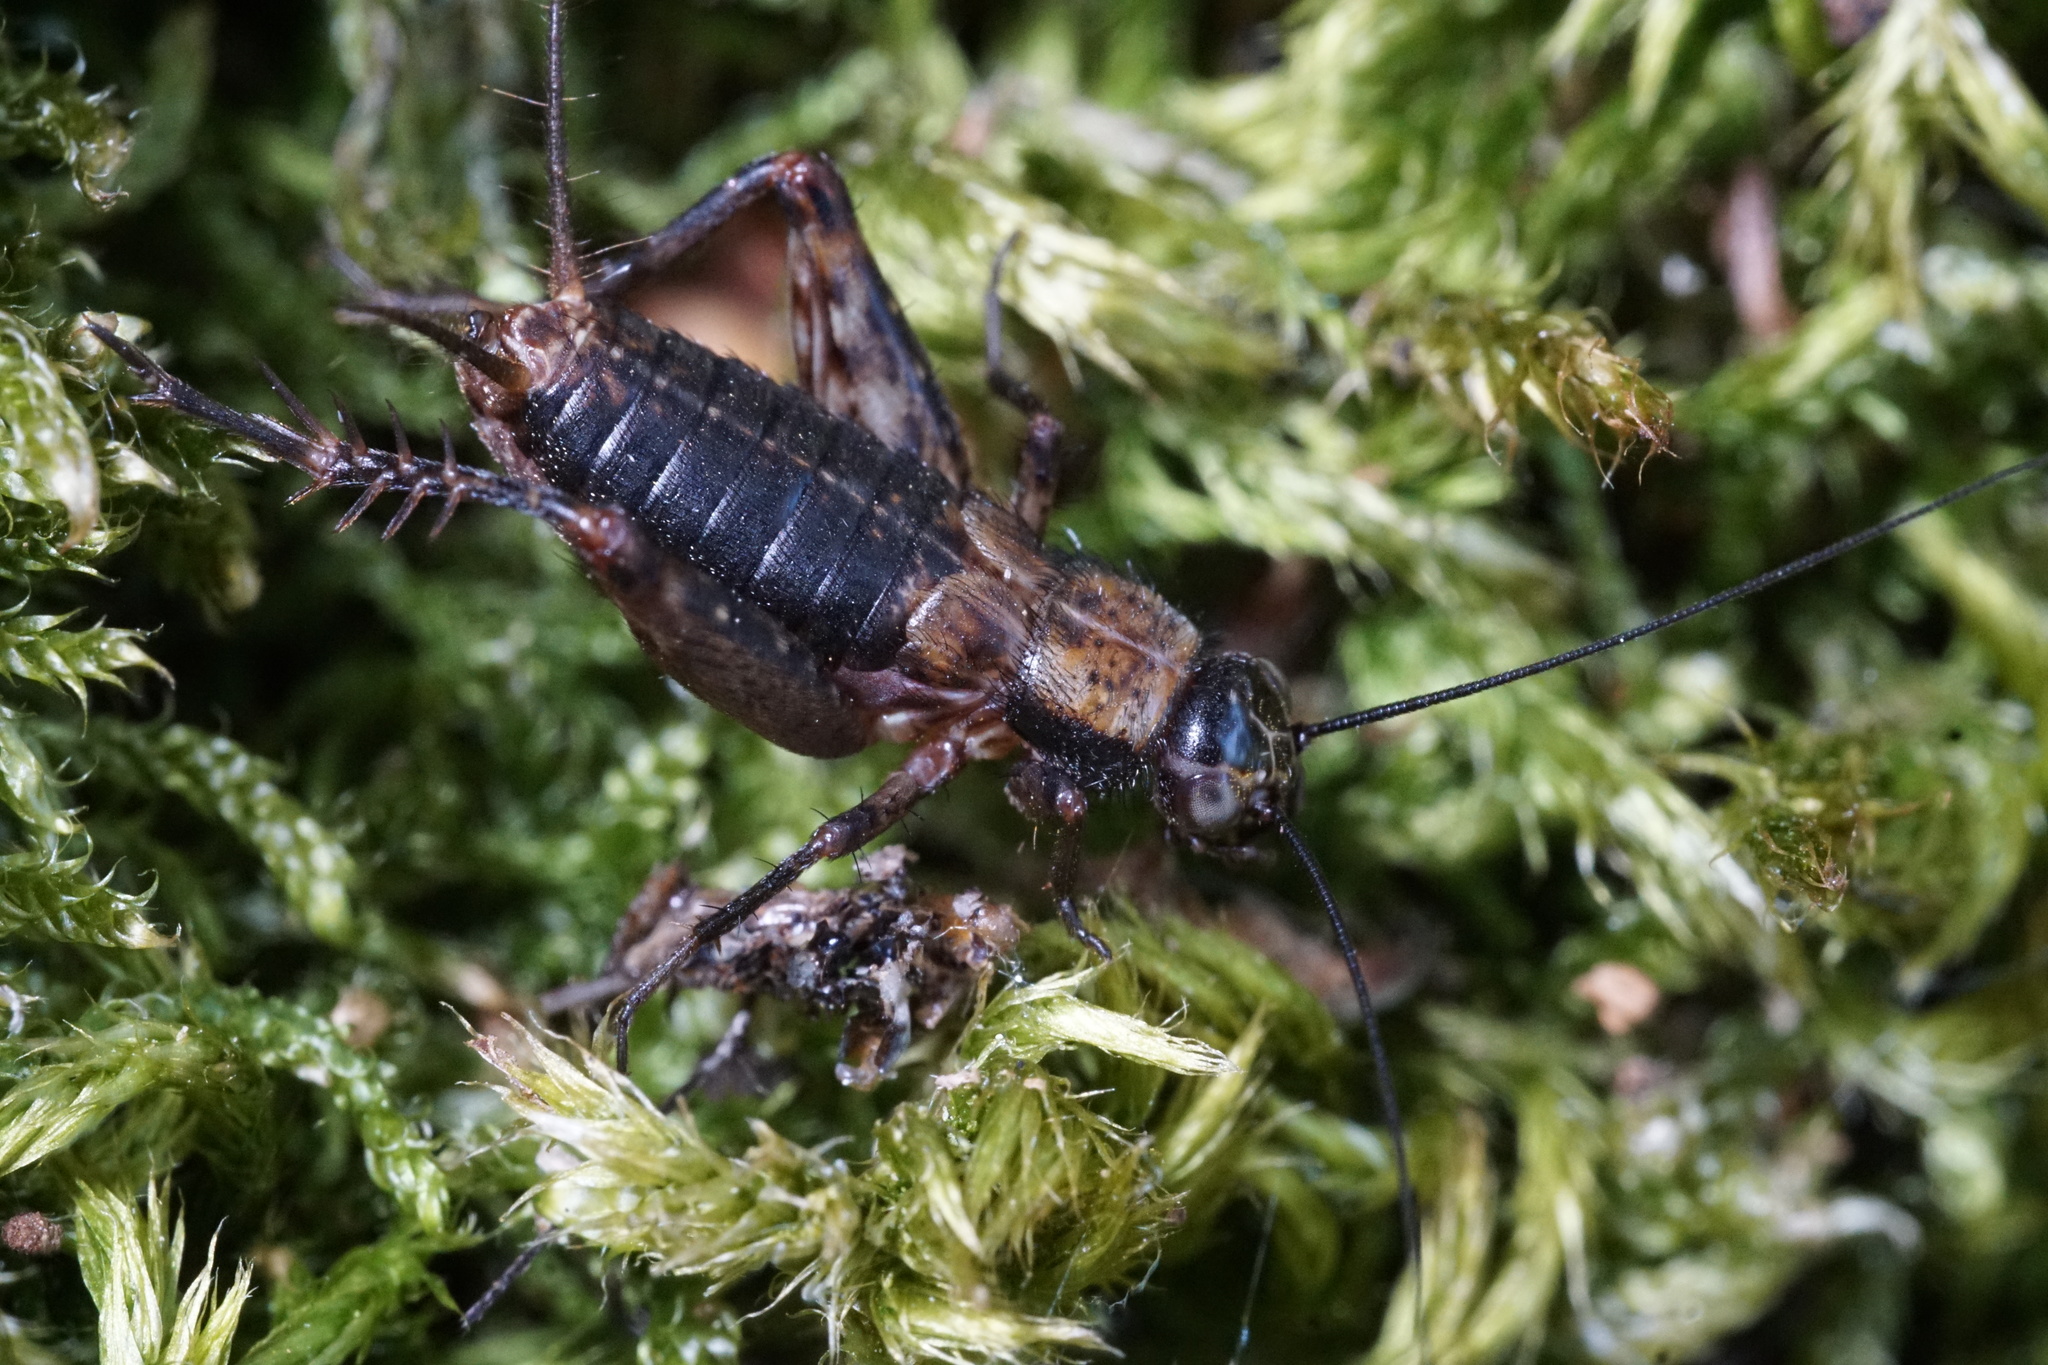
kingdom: Animalia
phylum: Arthropoda
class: Insecta
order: Orthoptera
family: Trigonidiidae
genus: Nemobius
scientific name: Nemobius sylvestris
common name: Wood-cricket
